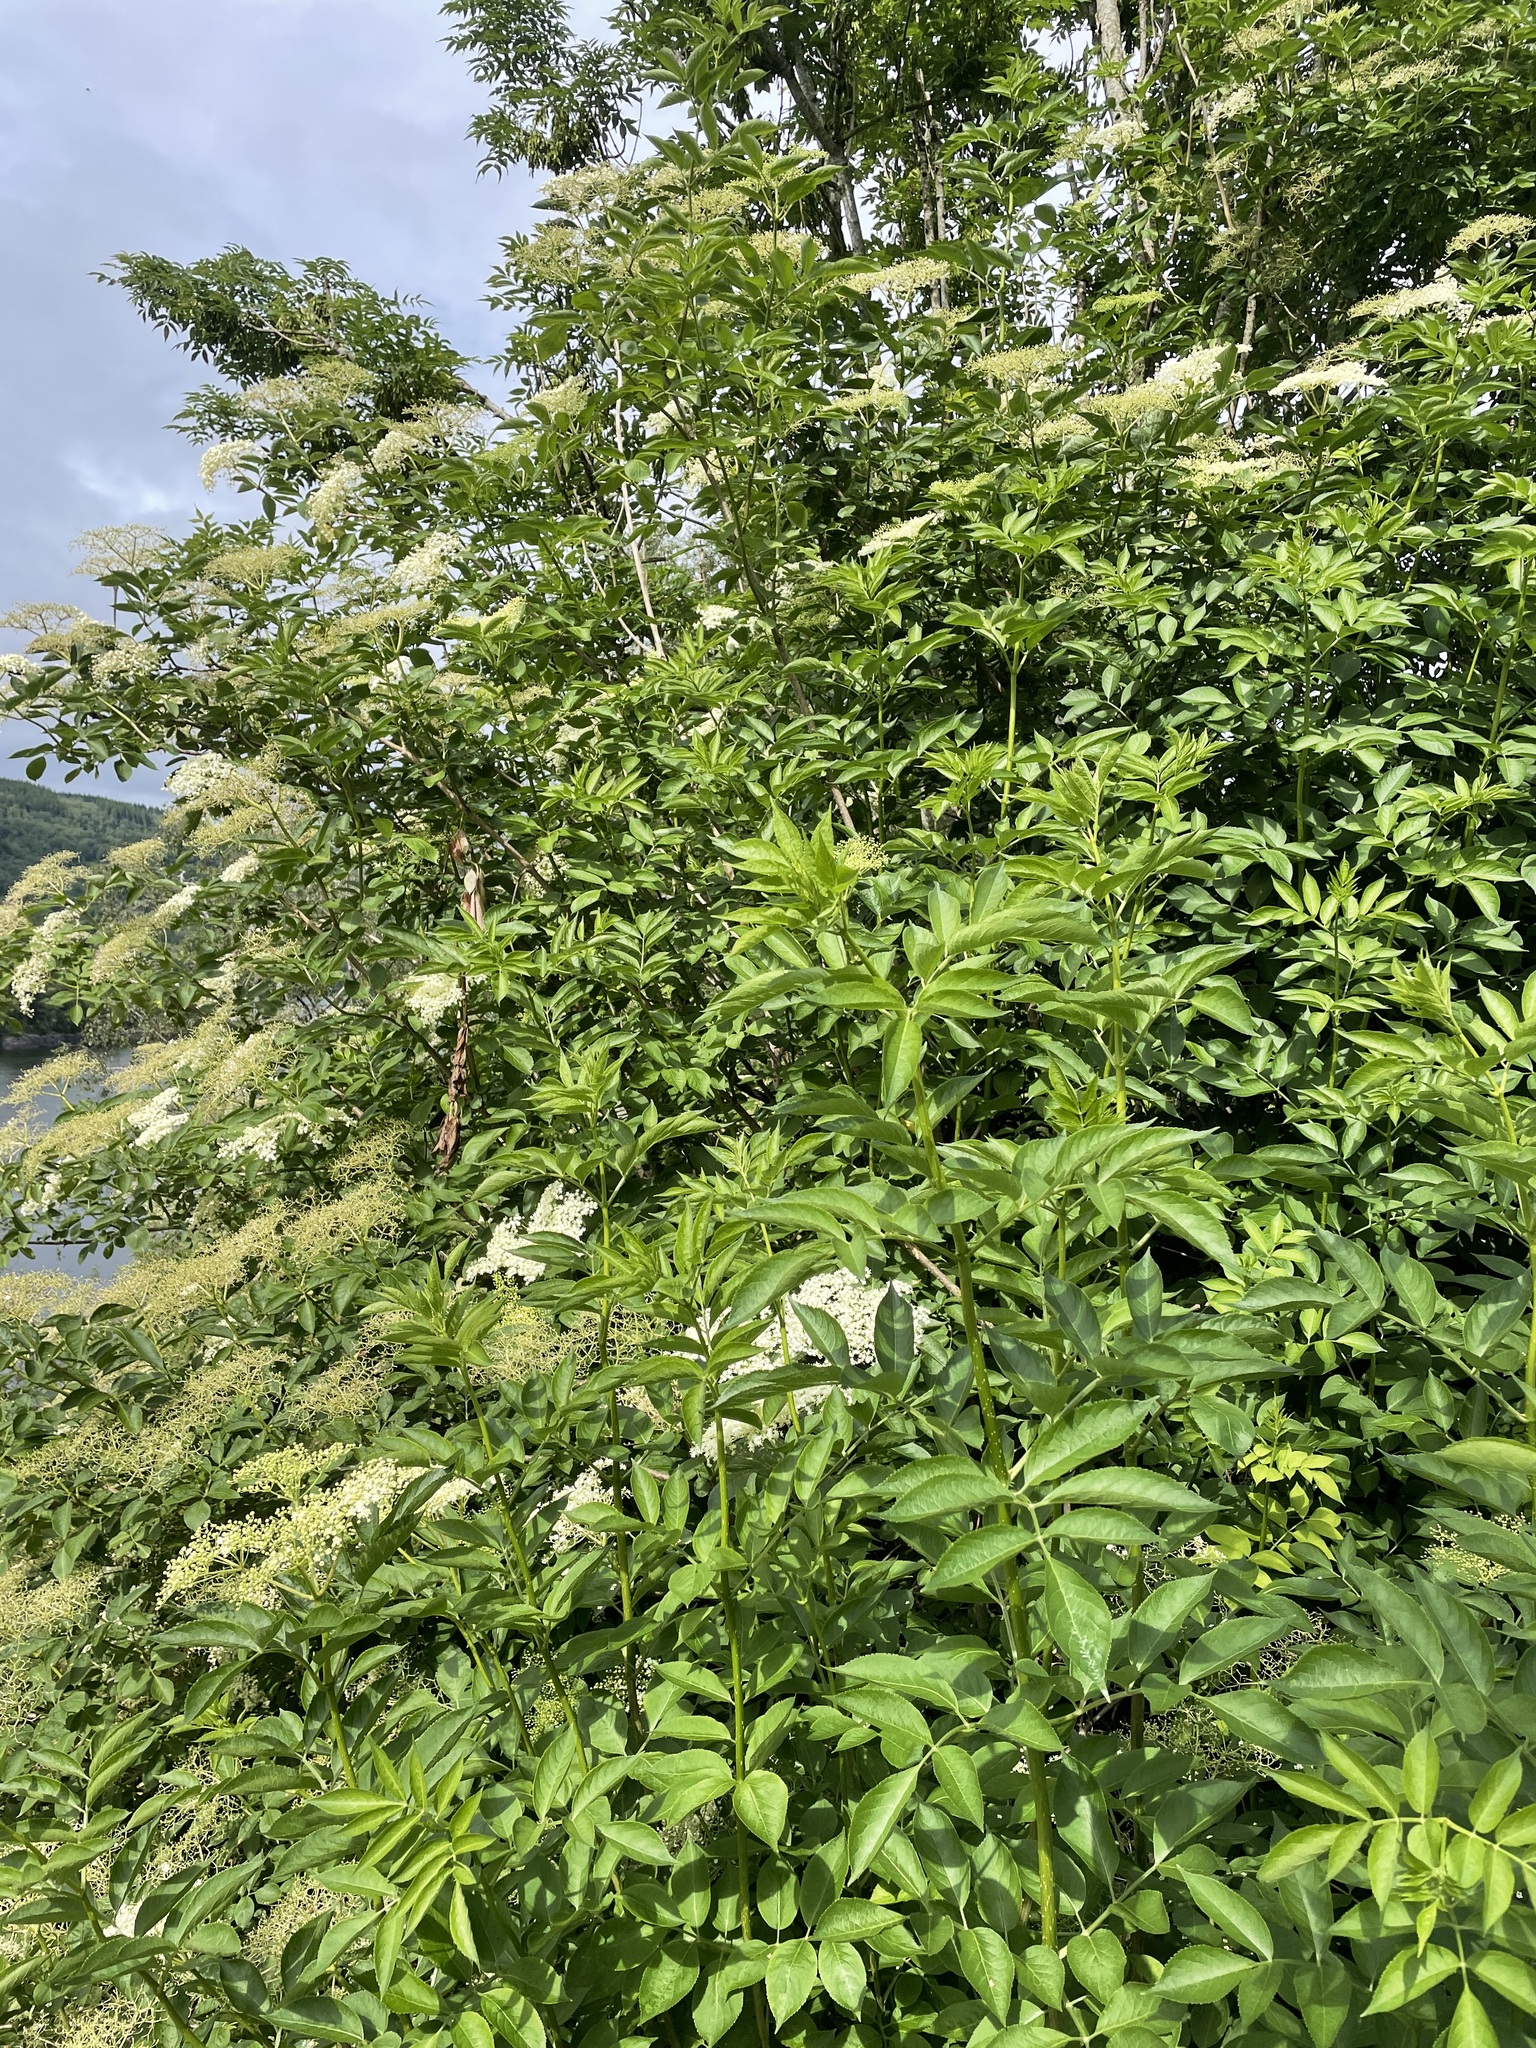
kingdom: Plantae
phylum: Tracheophyta
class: Magnoliopsida
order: Dipsacales
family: Viburnaceae
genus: Sambucus
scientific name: Sambucus nigra
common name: Elder
